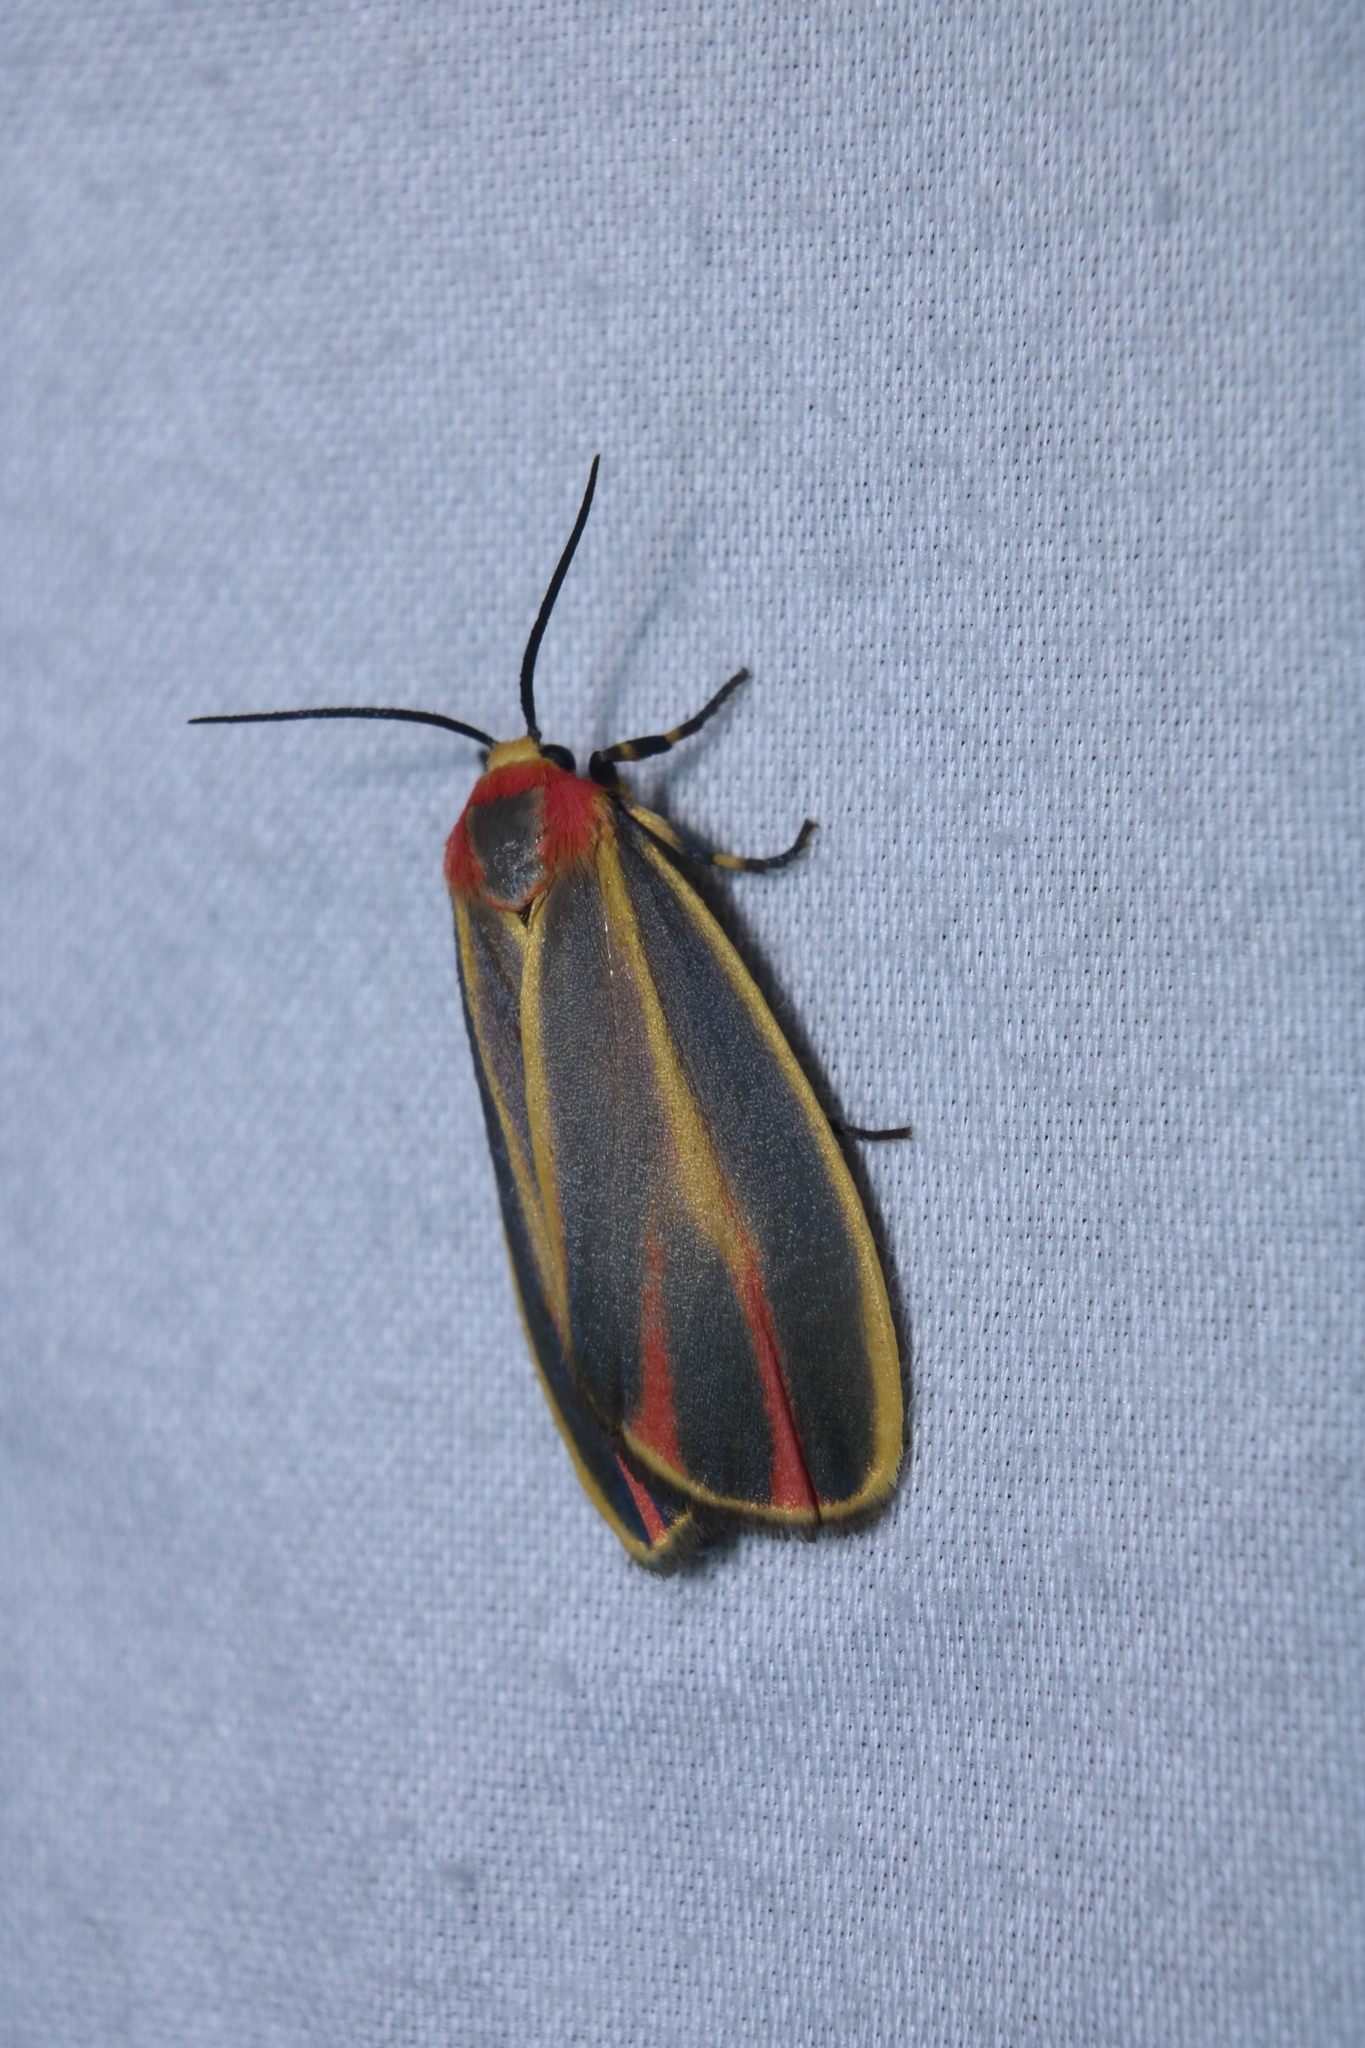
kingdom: Animalia
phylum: Arthropoda
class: Insecta
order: Lepidoptera
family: Erebidae
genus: Hypoprepia
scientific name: Hypoprepia fucosa
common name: Painted lichen moth
